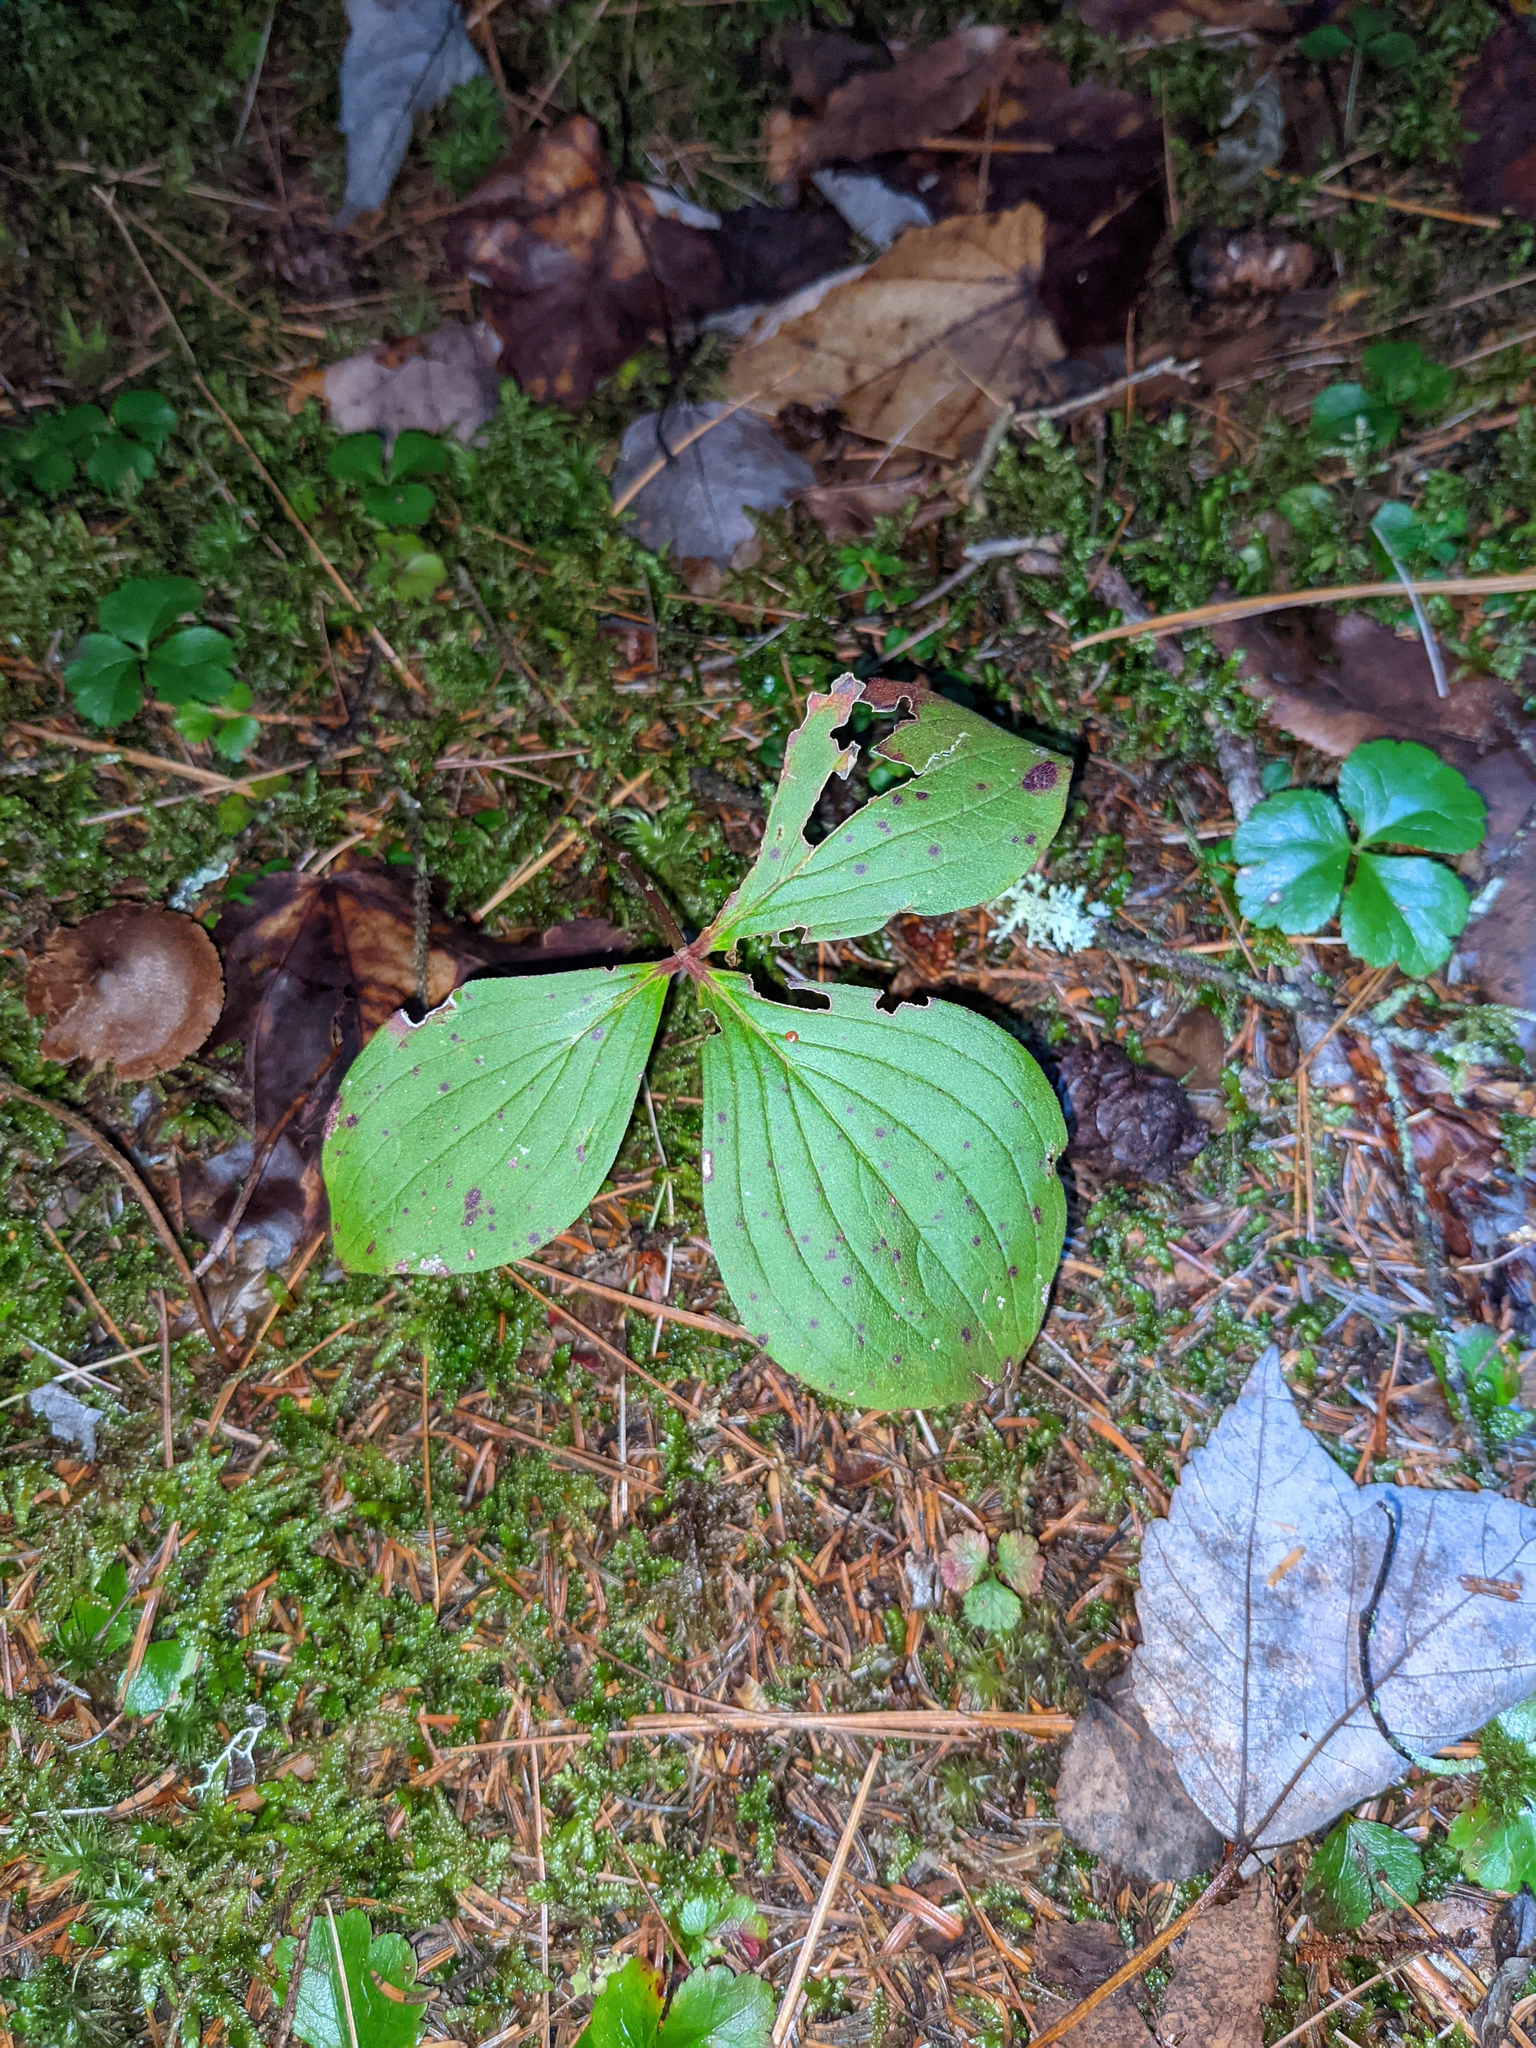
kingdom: Plantae
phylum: Tracheophyta
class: Magnoliopsida
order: Cornales
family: Cornaceae
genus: Cornus
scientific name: Cornus canadensis
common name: Creeping dogwood
